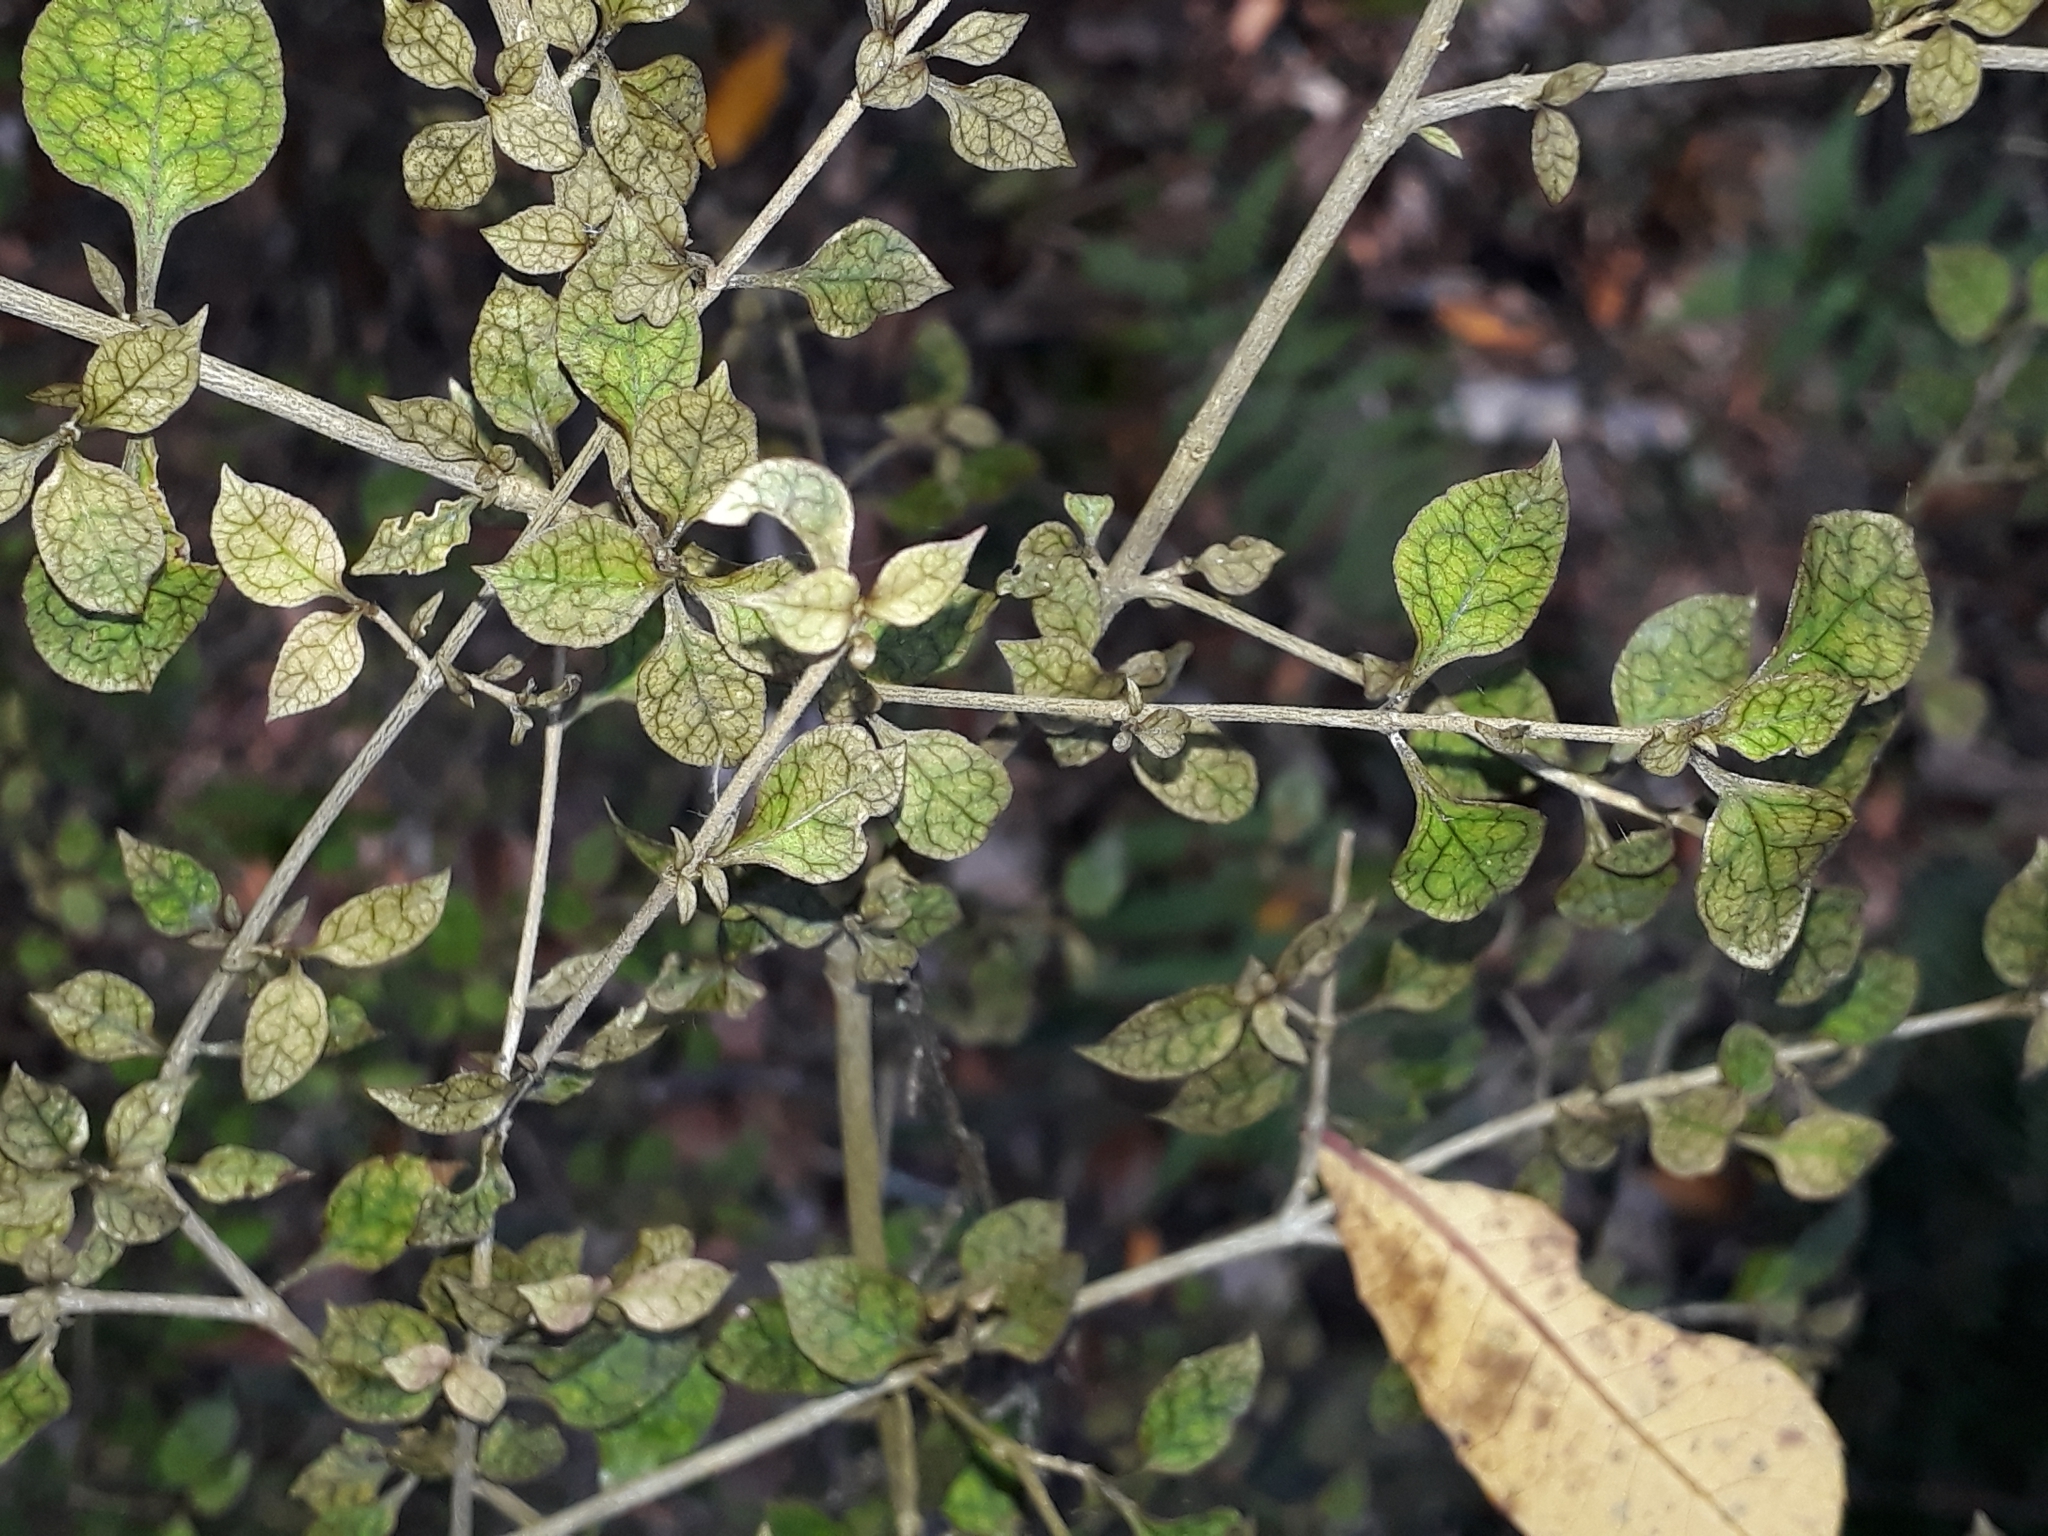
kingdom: Plantae
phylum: Tracheophyta
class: Magnoliopsida
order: Gentianales
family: Rubiaceae
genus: Coprosma
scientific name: Coprosma areolata
